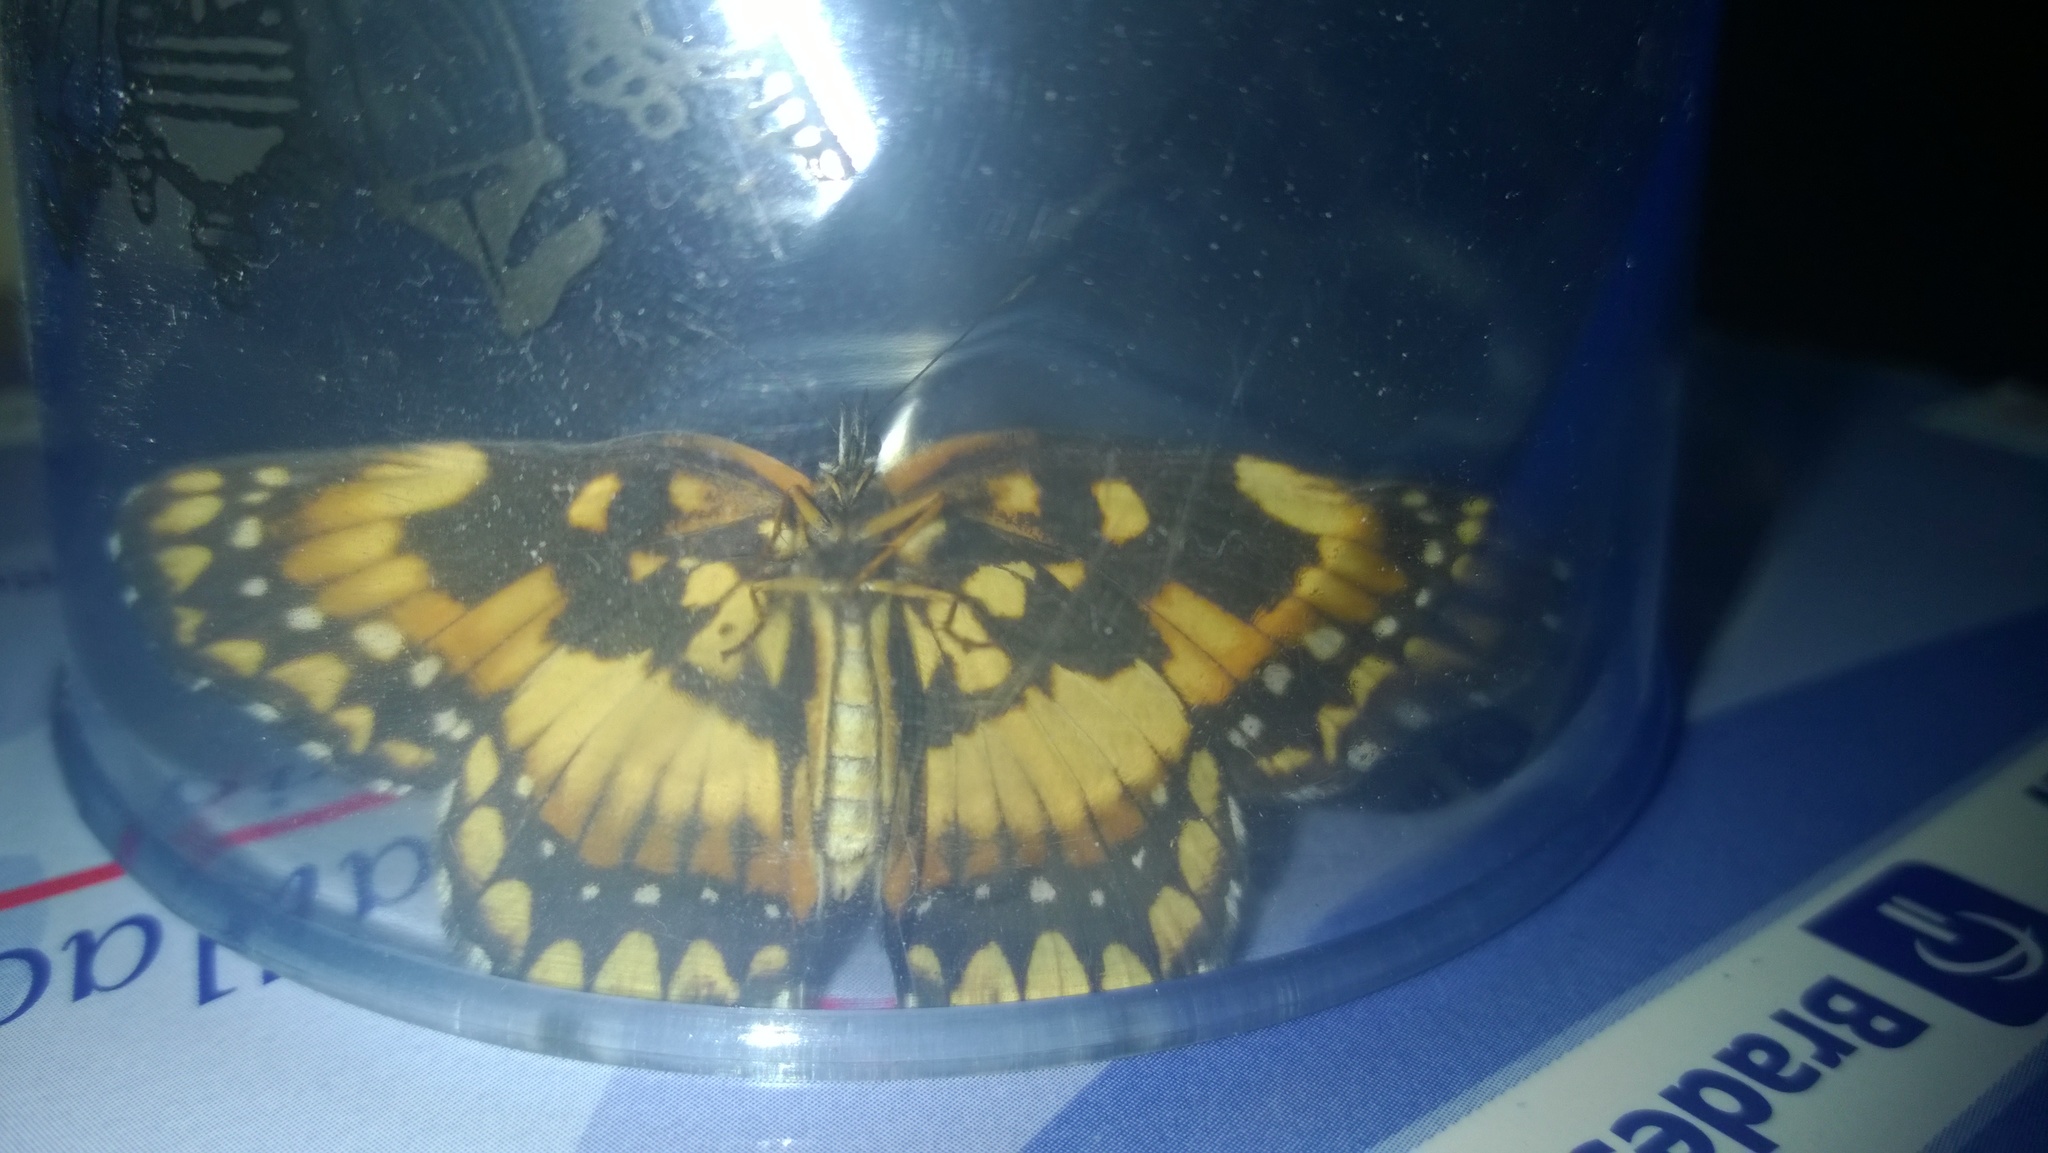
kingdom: Animalia
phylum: Arthropoda
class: Insecta
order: Lepidoptera
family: Nymphalidae
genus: Chlosyne
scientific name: Chlosyne lacinia
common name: Bordered patch
